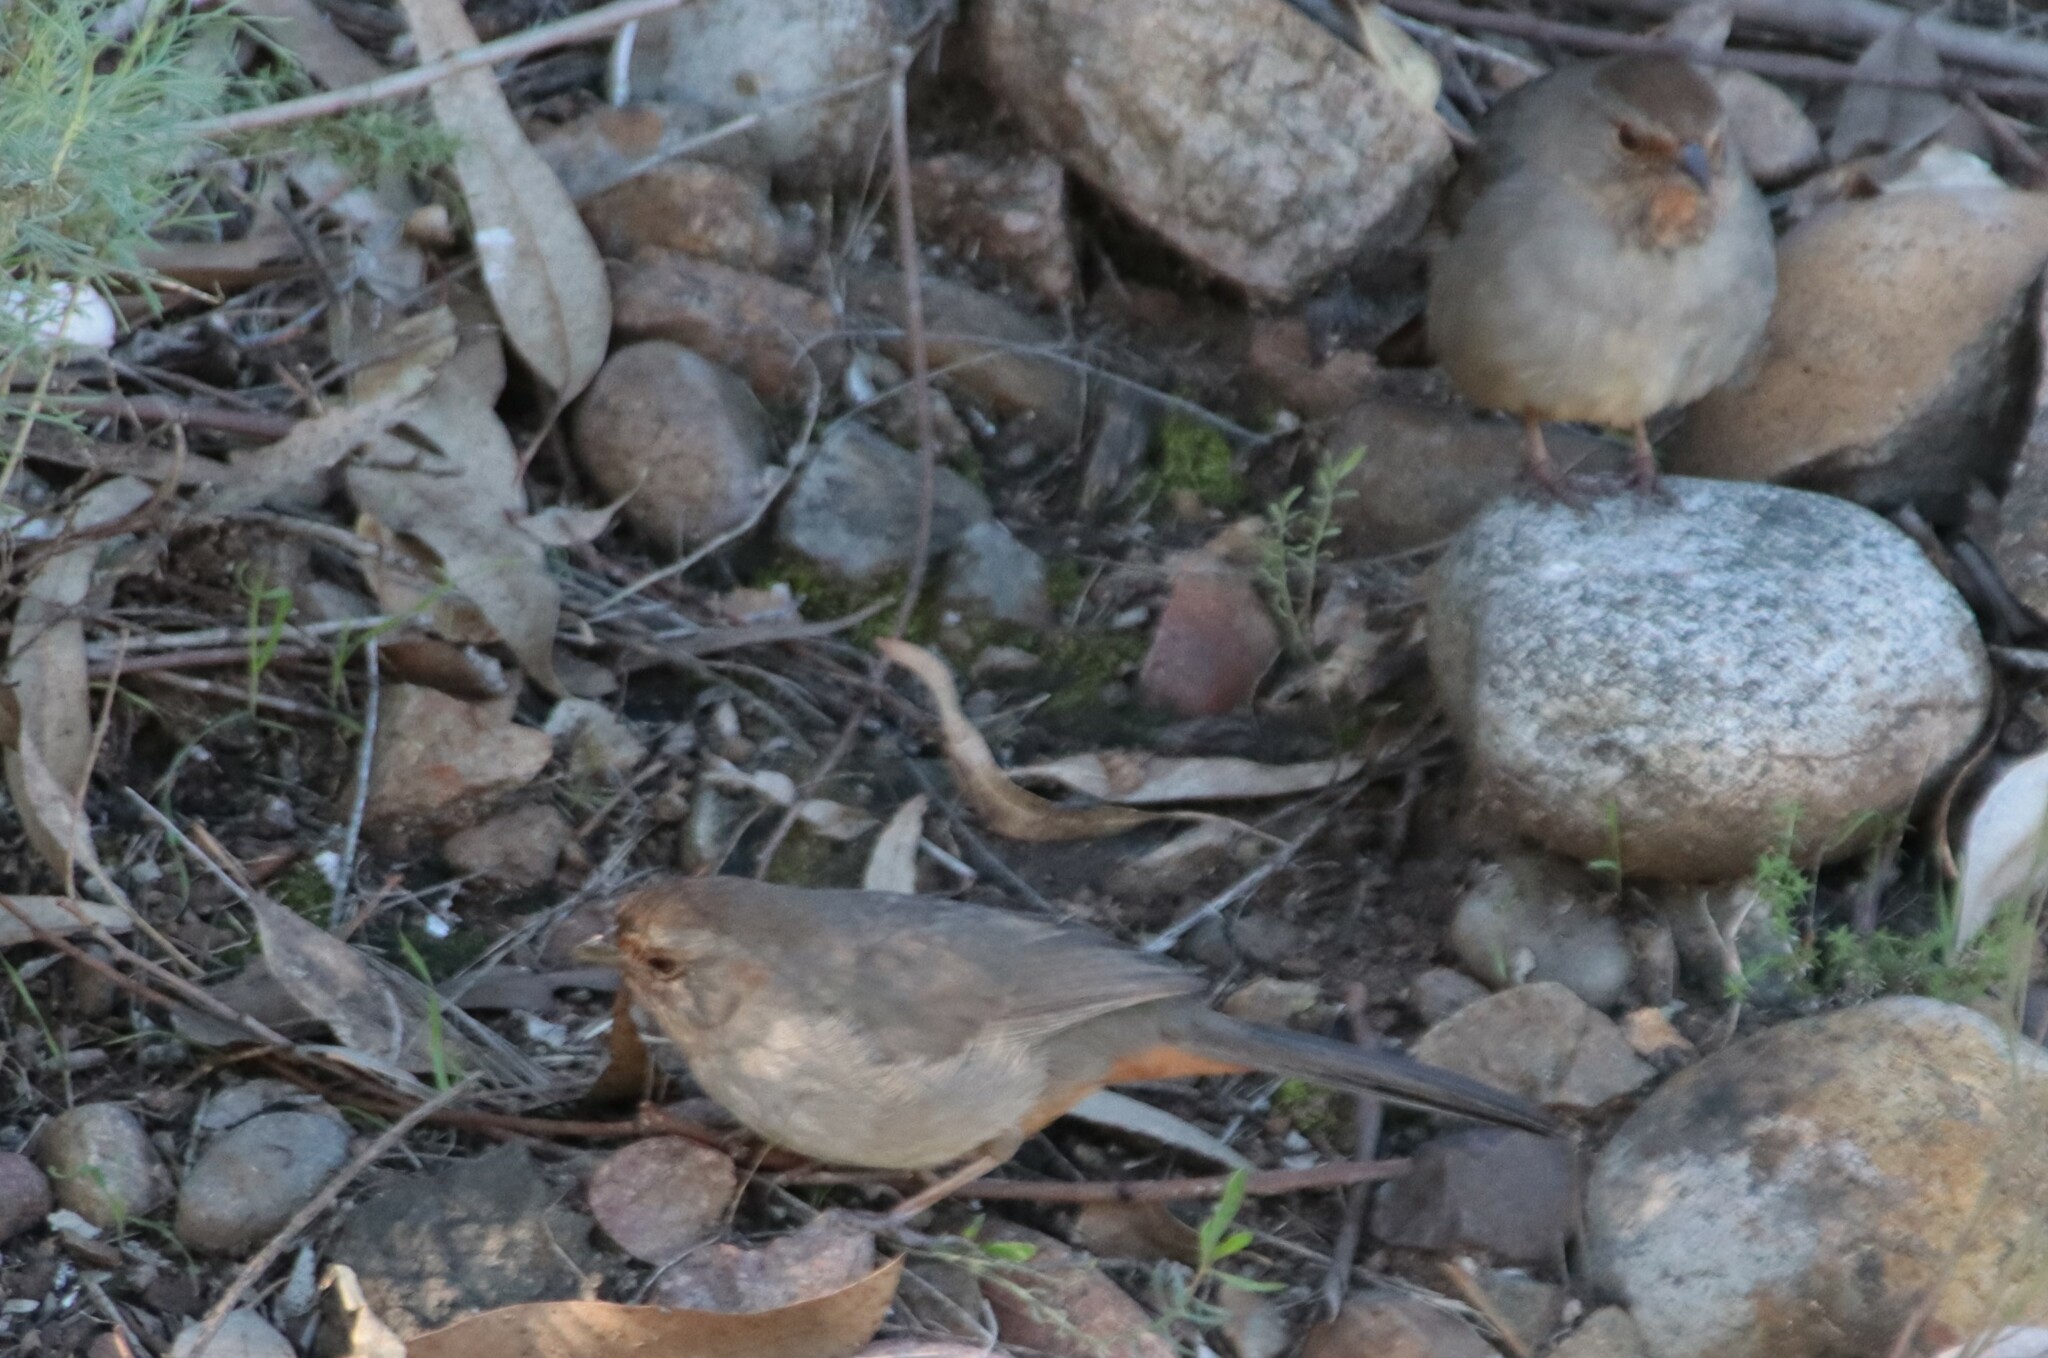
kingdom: Animalia
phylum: Chordata
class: Aves
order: Passeriformes
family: Passerellidae
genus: Melozone
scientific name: Melozone crissalis
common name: California towhee
